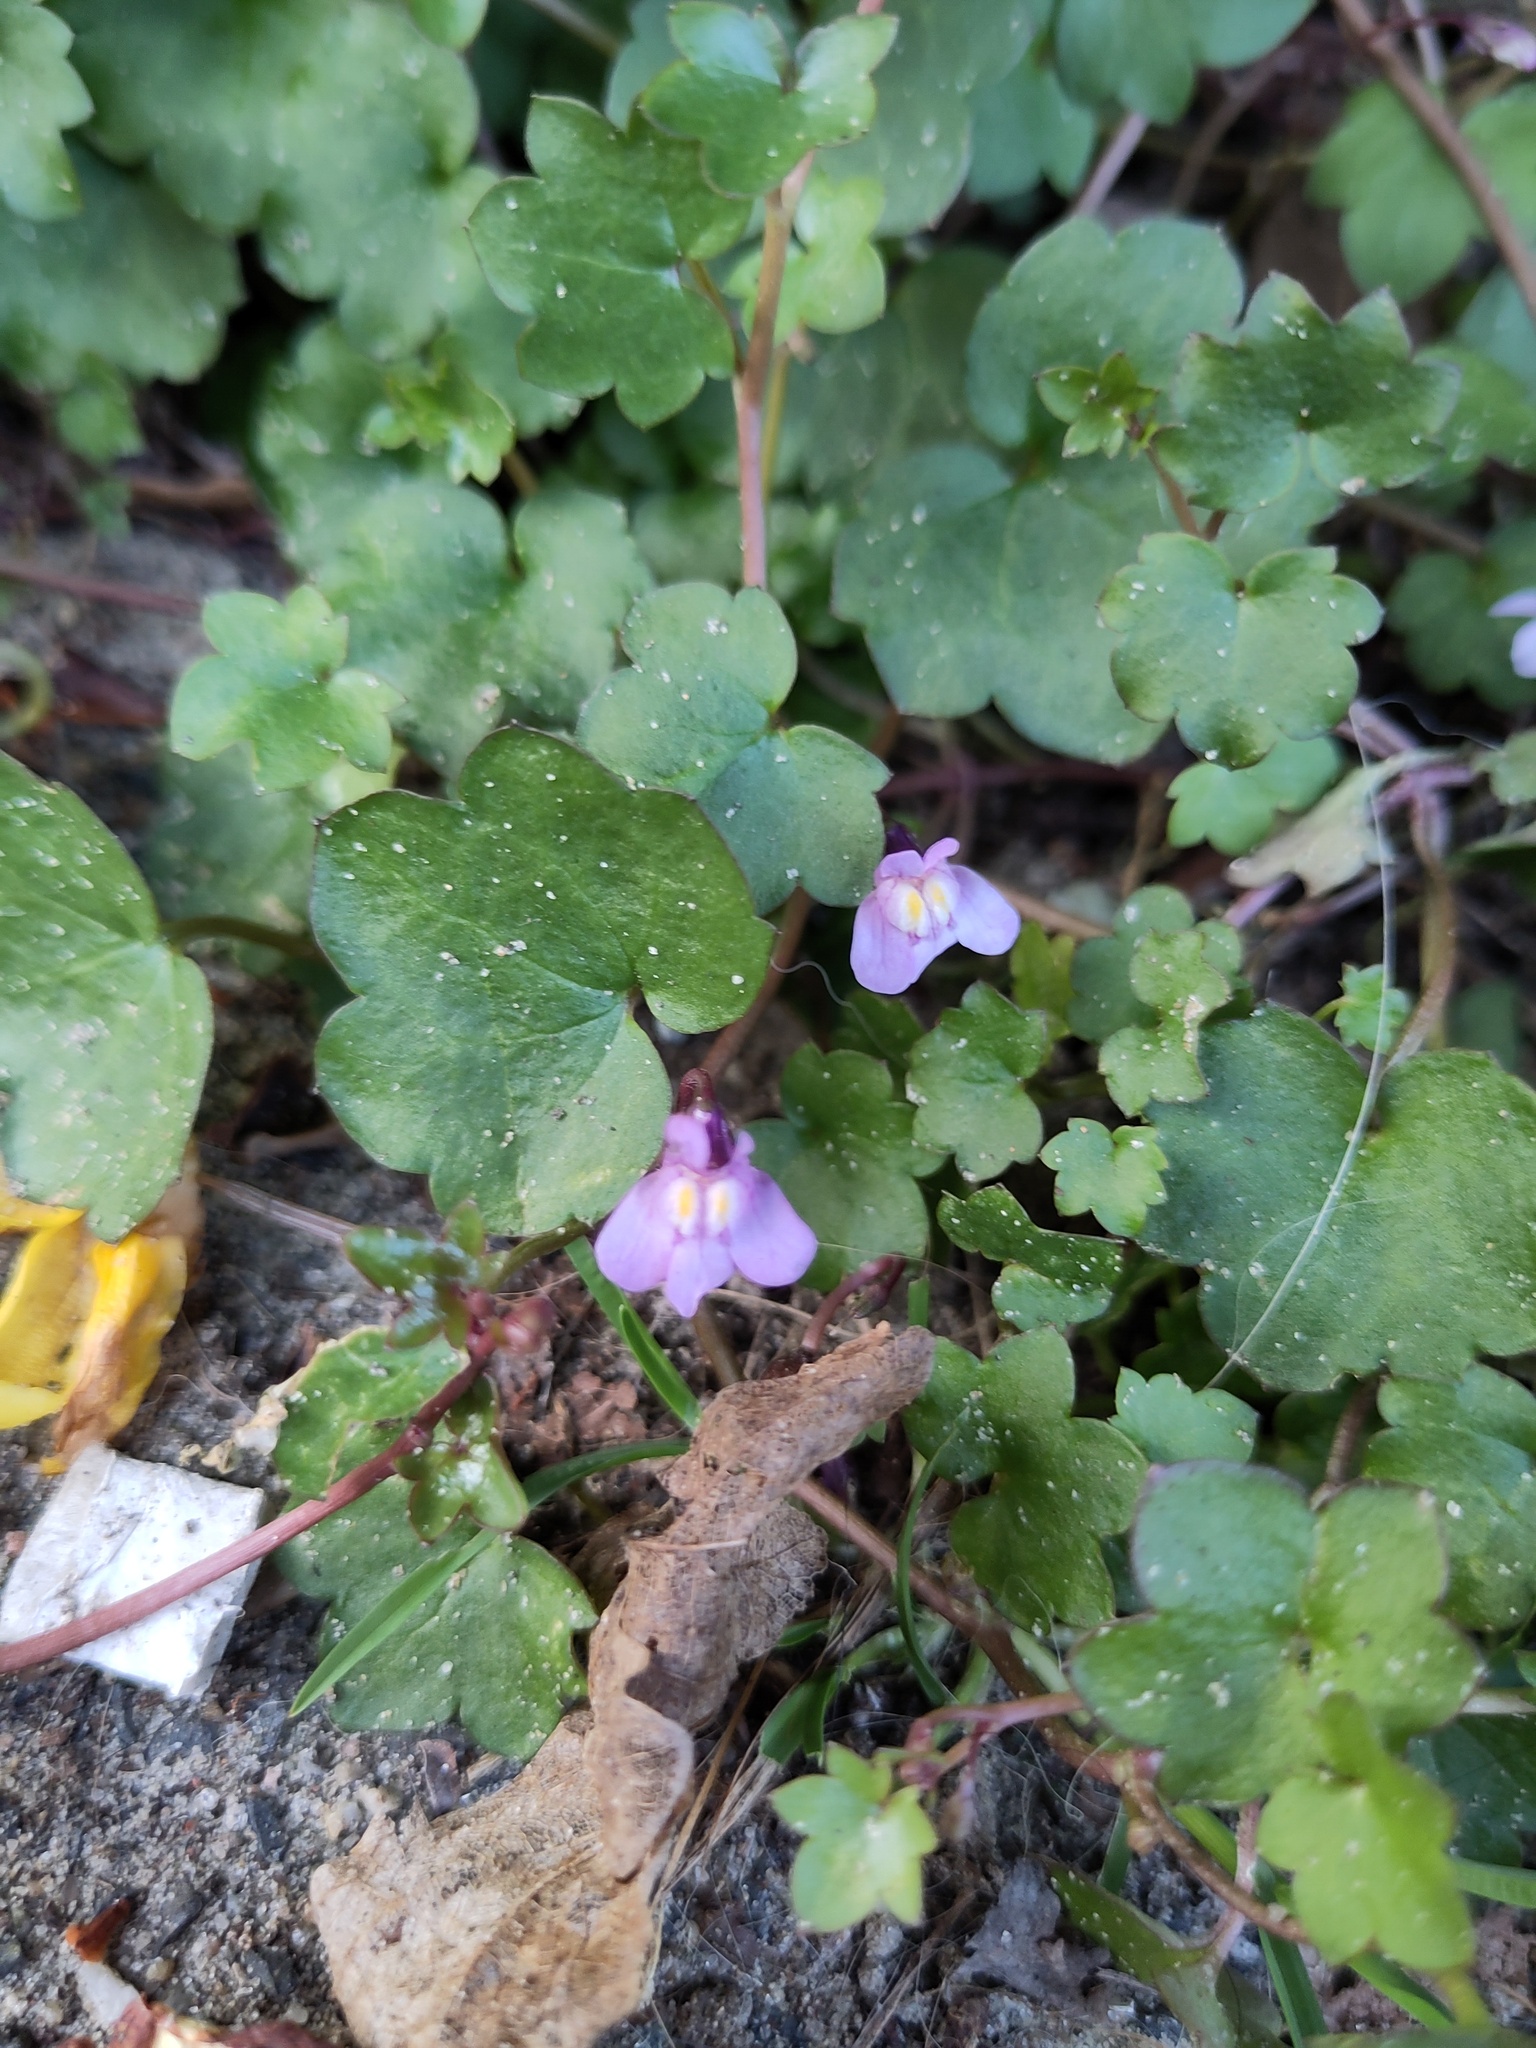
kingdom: Plantae
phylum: Tracheophyta
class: Magnoliopsida
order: Lamiales
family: Plantaginaceae
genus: Cymbalaria
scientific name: Cymbalaria muralis
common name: Ivy-leaved toadflax
